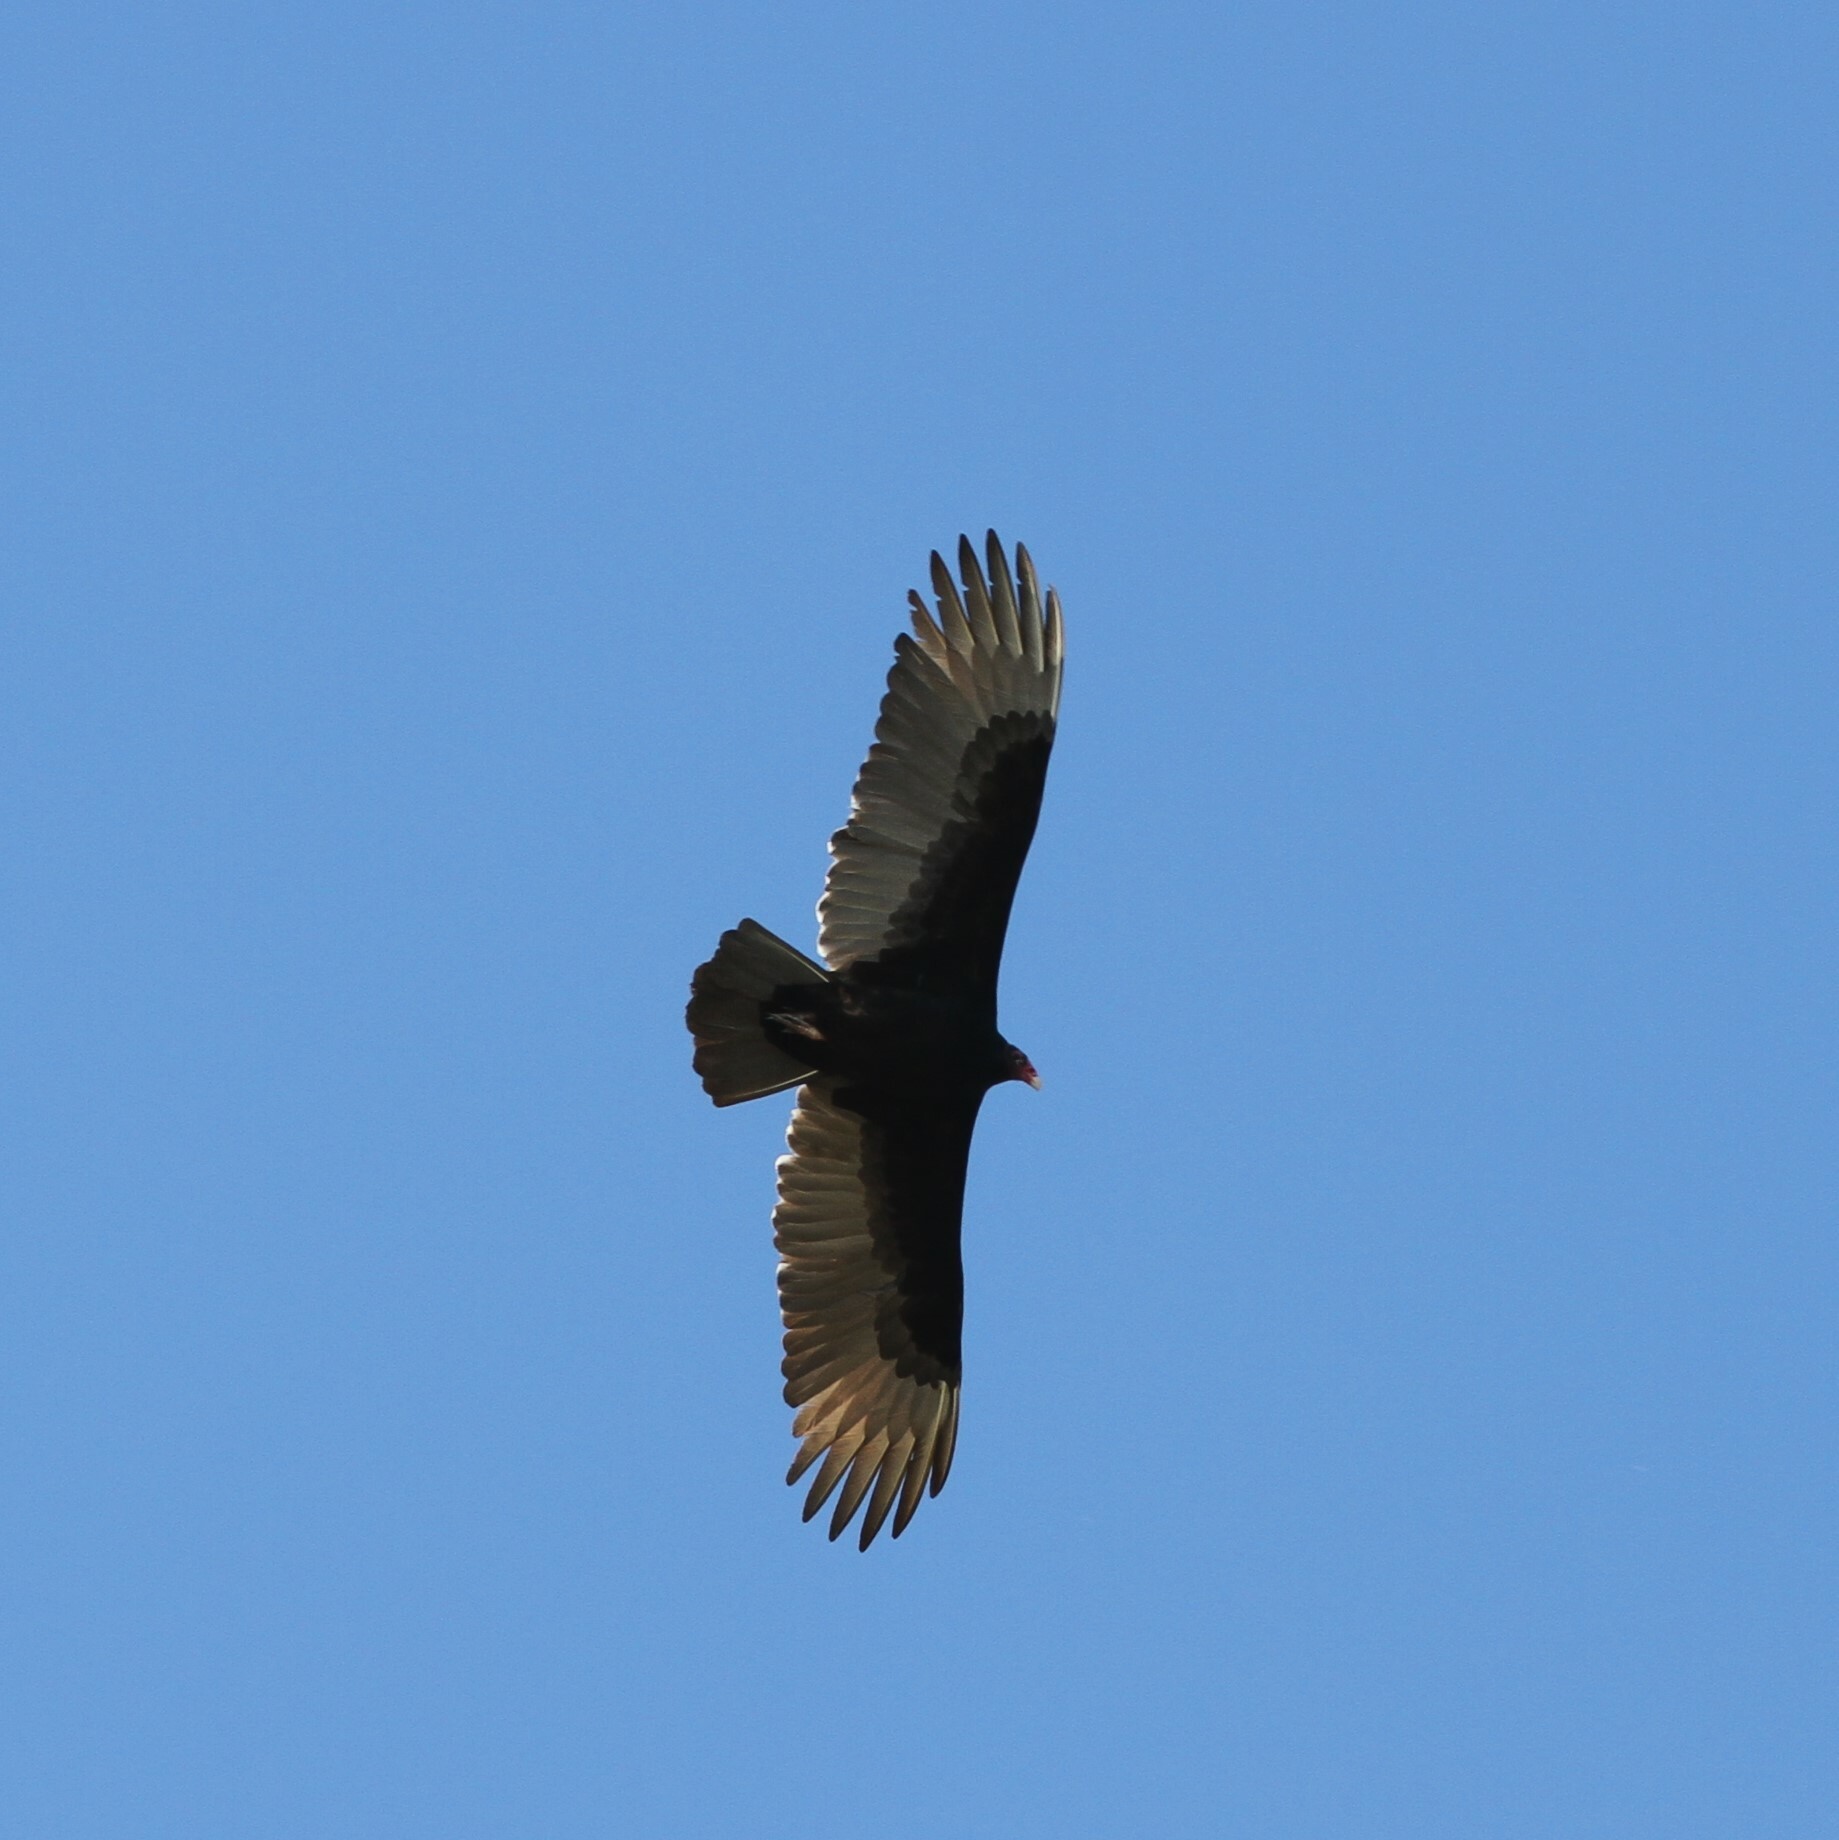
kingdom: Animalia
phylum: Chordata
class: Aves
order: Accipitriformes
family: Cathartidae
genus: Cathartes
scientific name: Cathartes aura
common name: Turkey vulture
